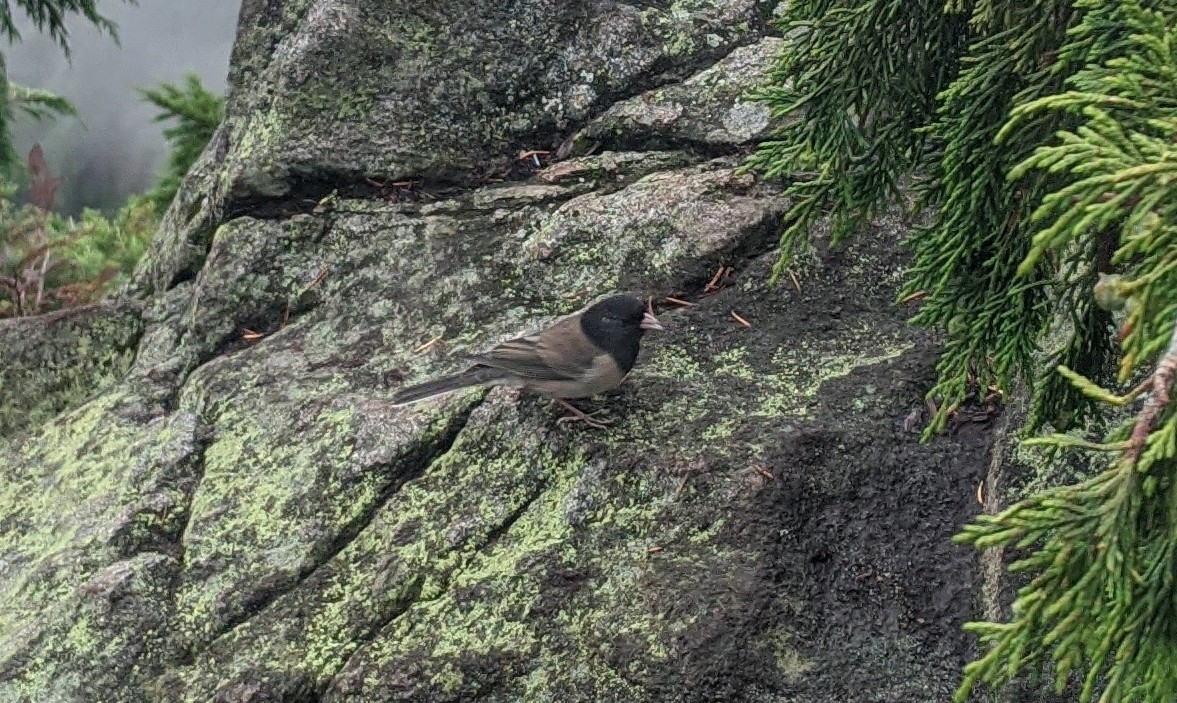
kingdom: Animalia
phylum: Chordata
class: Aves
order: Passeriformes
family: Passerellidae
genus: Junco
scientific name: Junco hyemalis
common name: Dark-eyed junco
